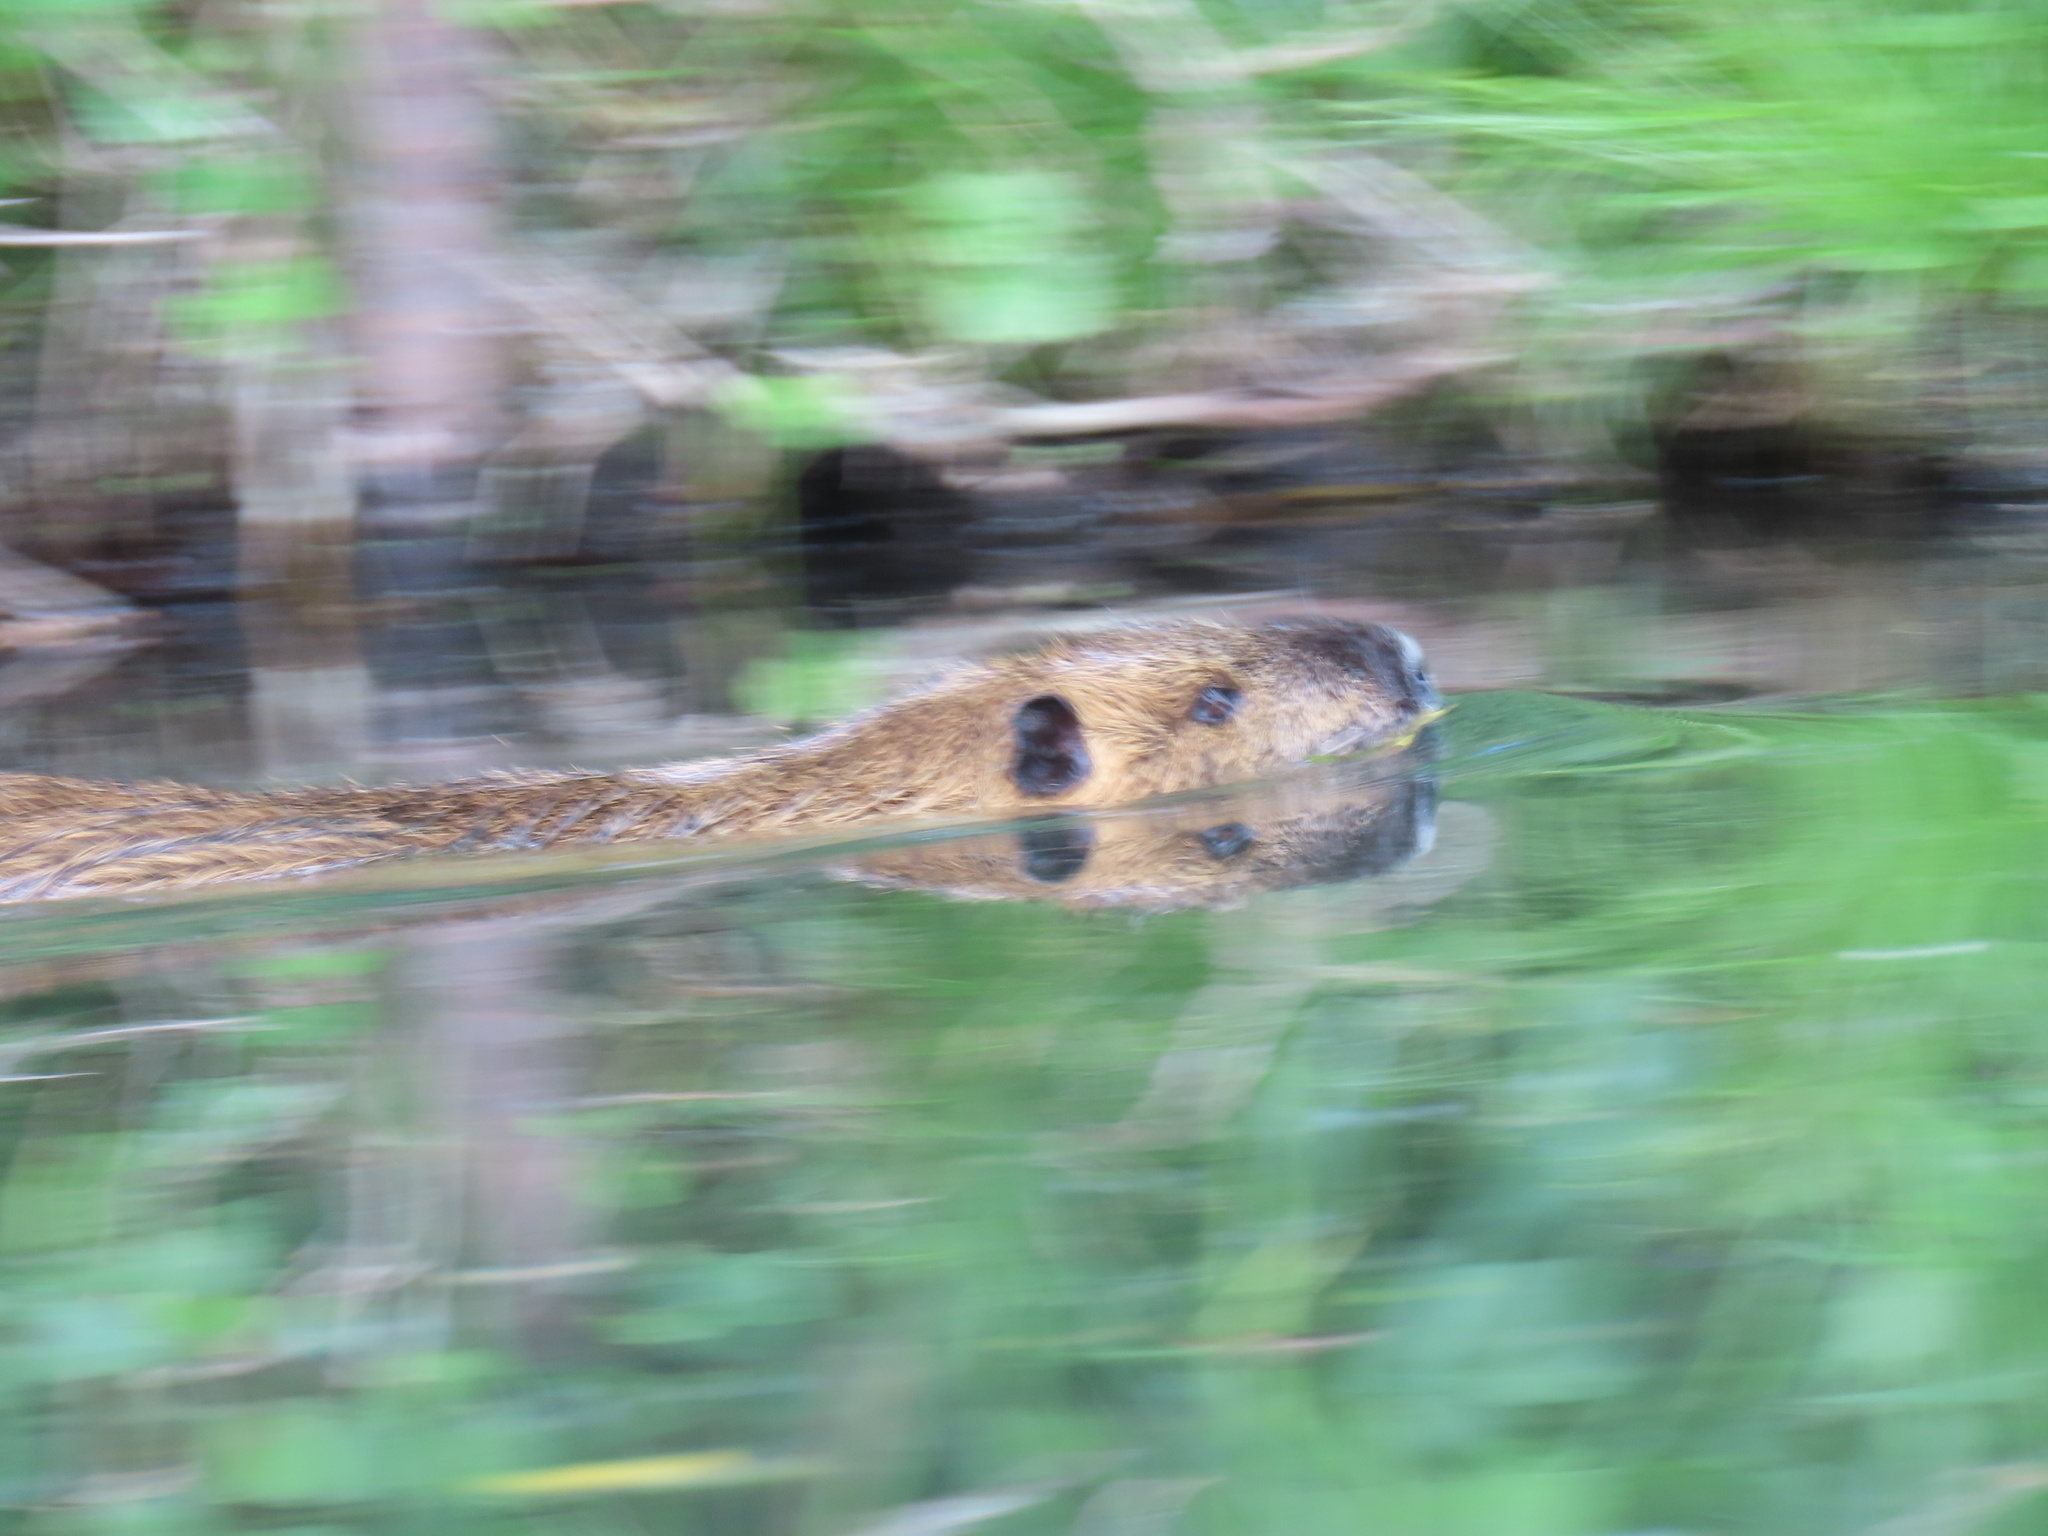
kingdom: Animalia
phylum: Chordata
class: Mammalia
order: Rodentia
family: Myocastoridae
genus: Myocastor
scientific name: Myocastor coypus
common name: Coypu
